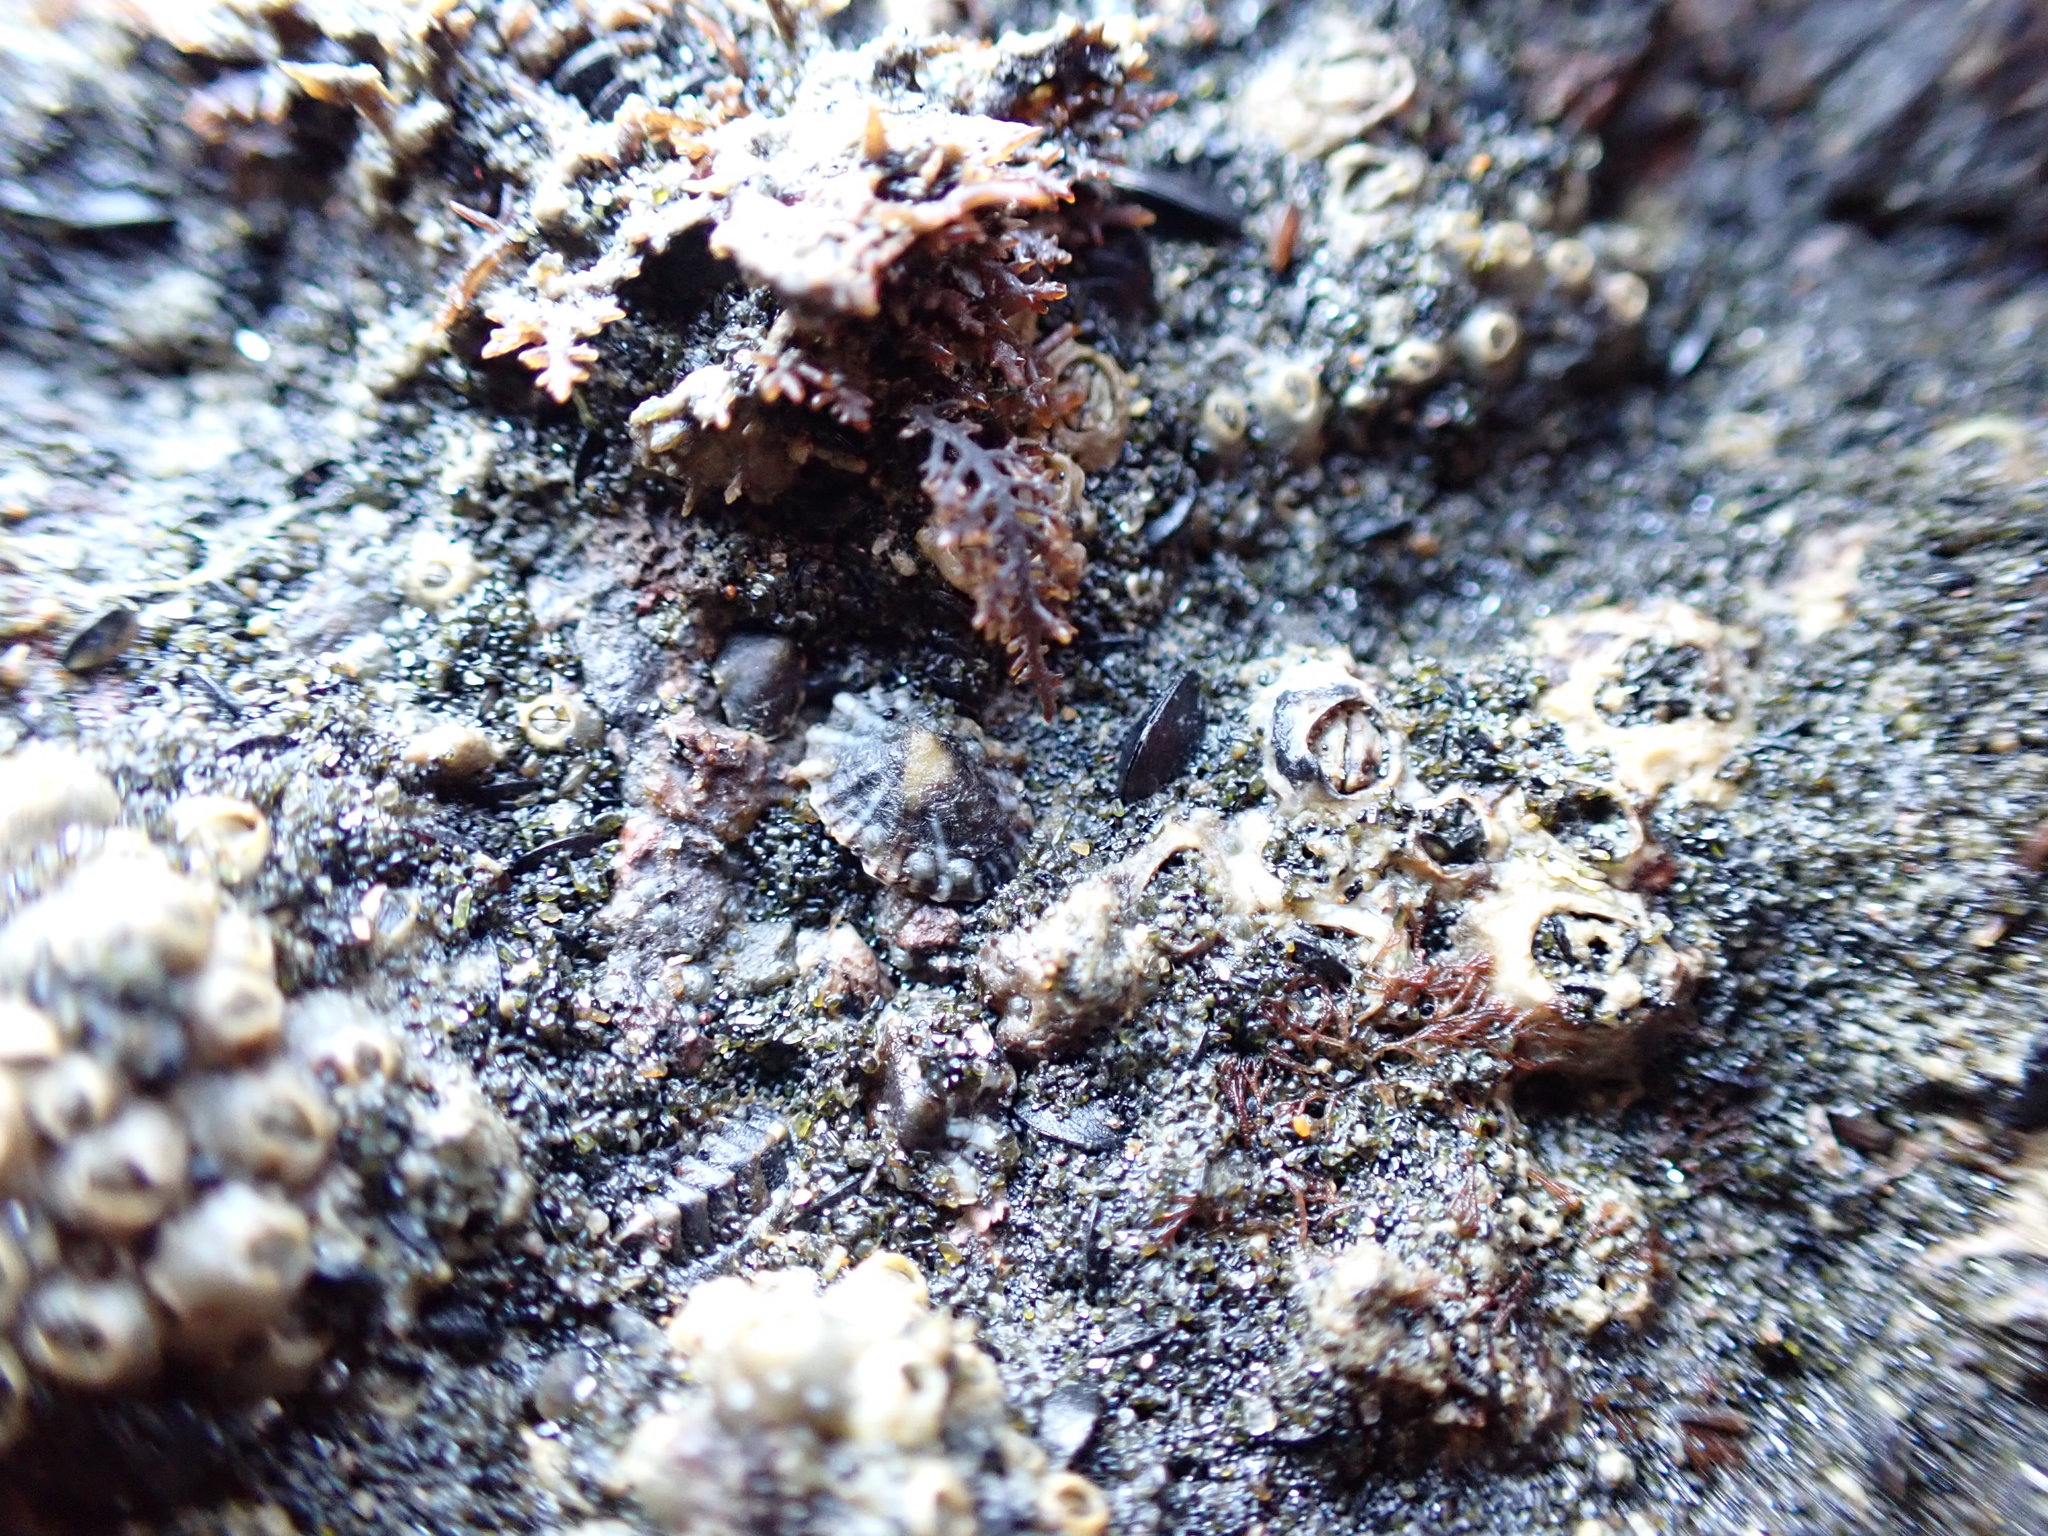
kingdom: Animalia
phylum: Mollusca
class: Gastropoda
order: Siphonariida
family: Siphonariidae
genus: Siphonaria
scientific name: Siphonaria australis
